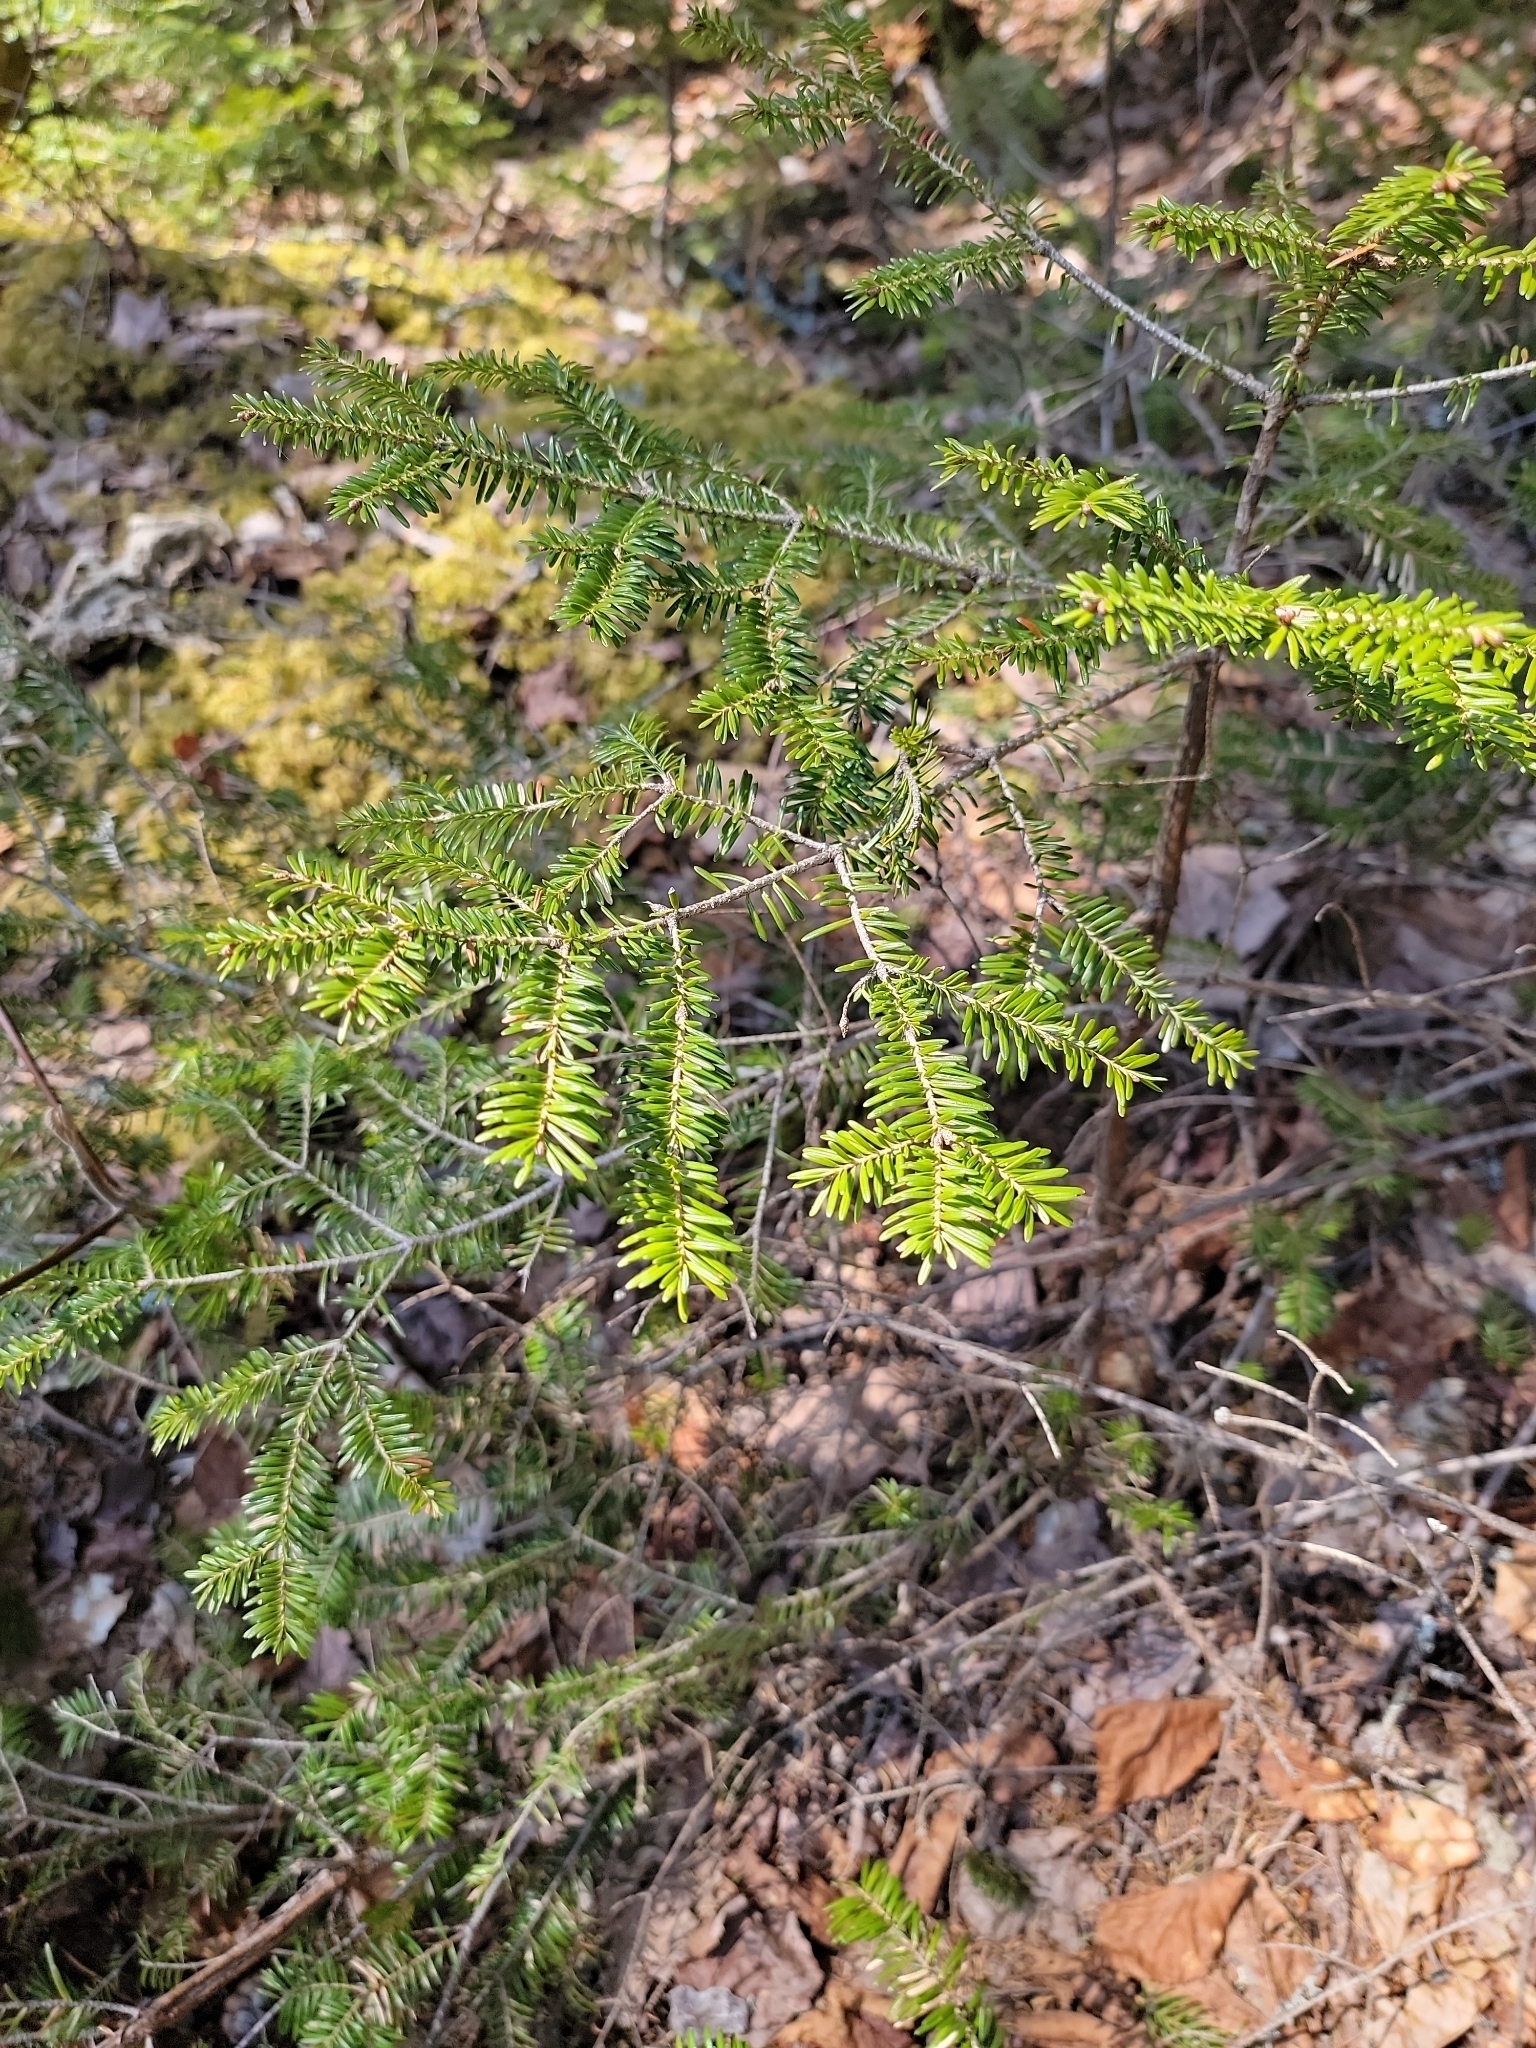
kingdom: Plantae
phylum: Tracheophyta
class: Pinopsida
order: Pinales
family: Pinaceae
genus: Abies
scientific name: Abies balsamea
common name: Balsam fir
